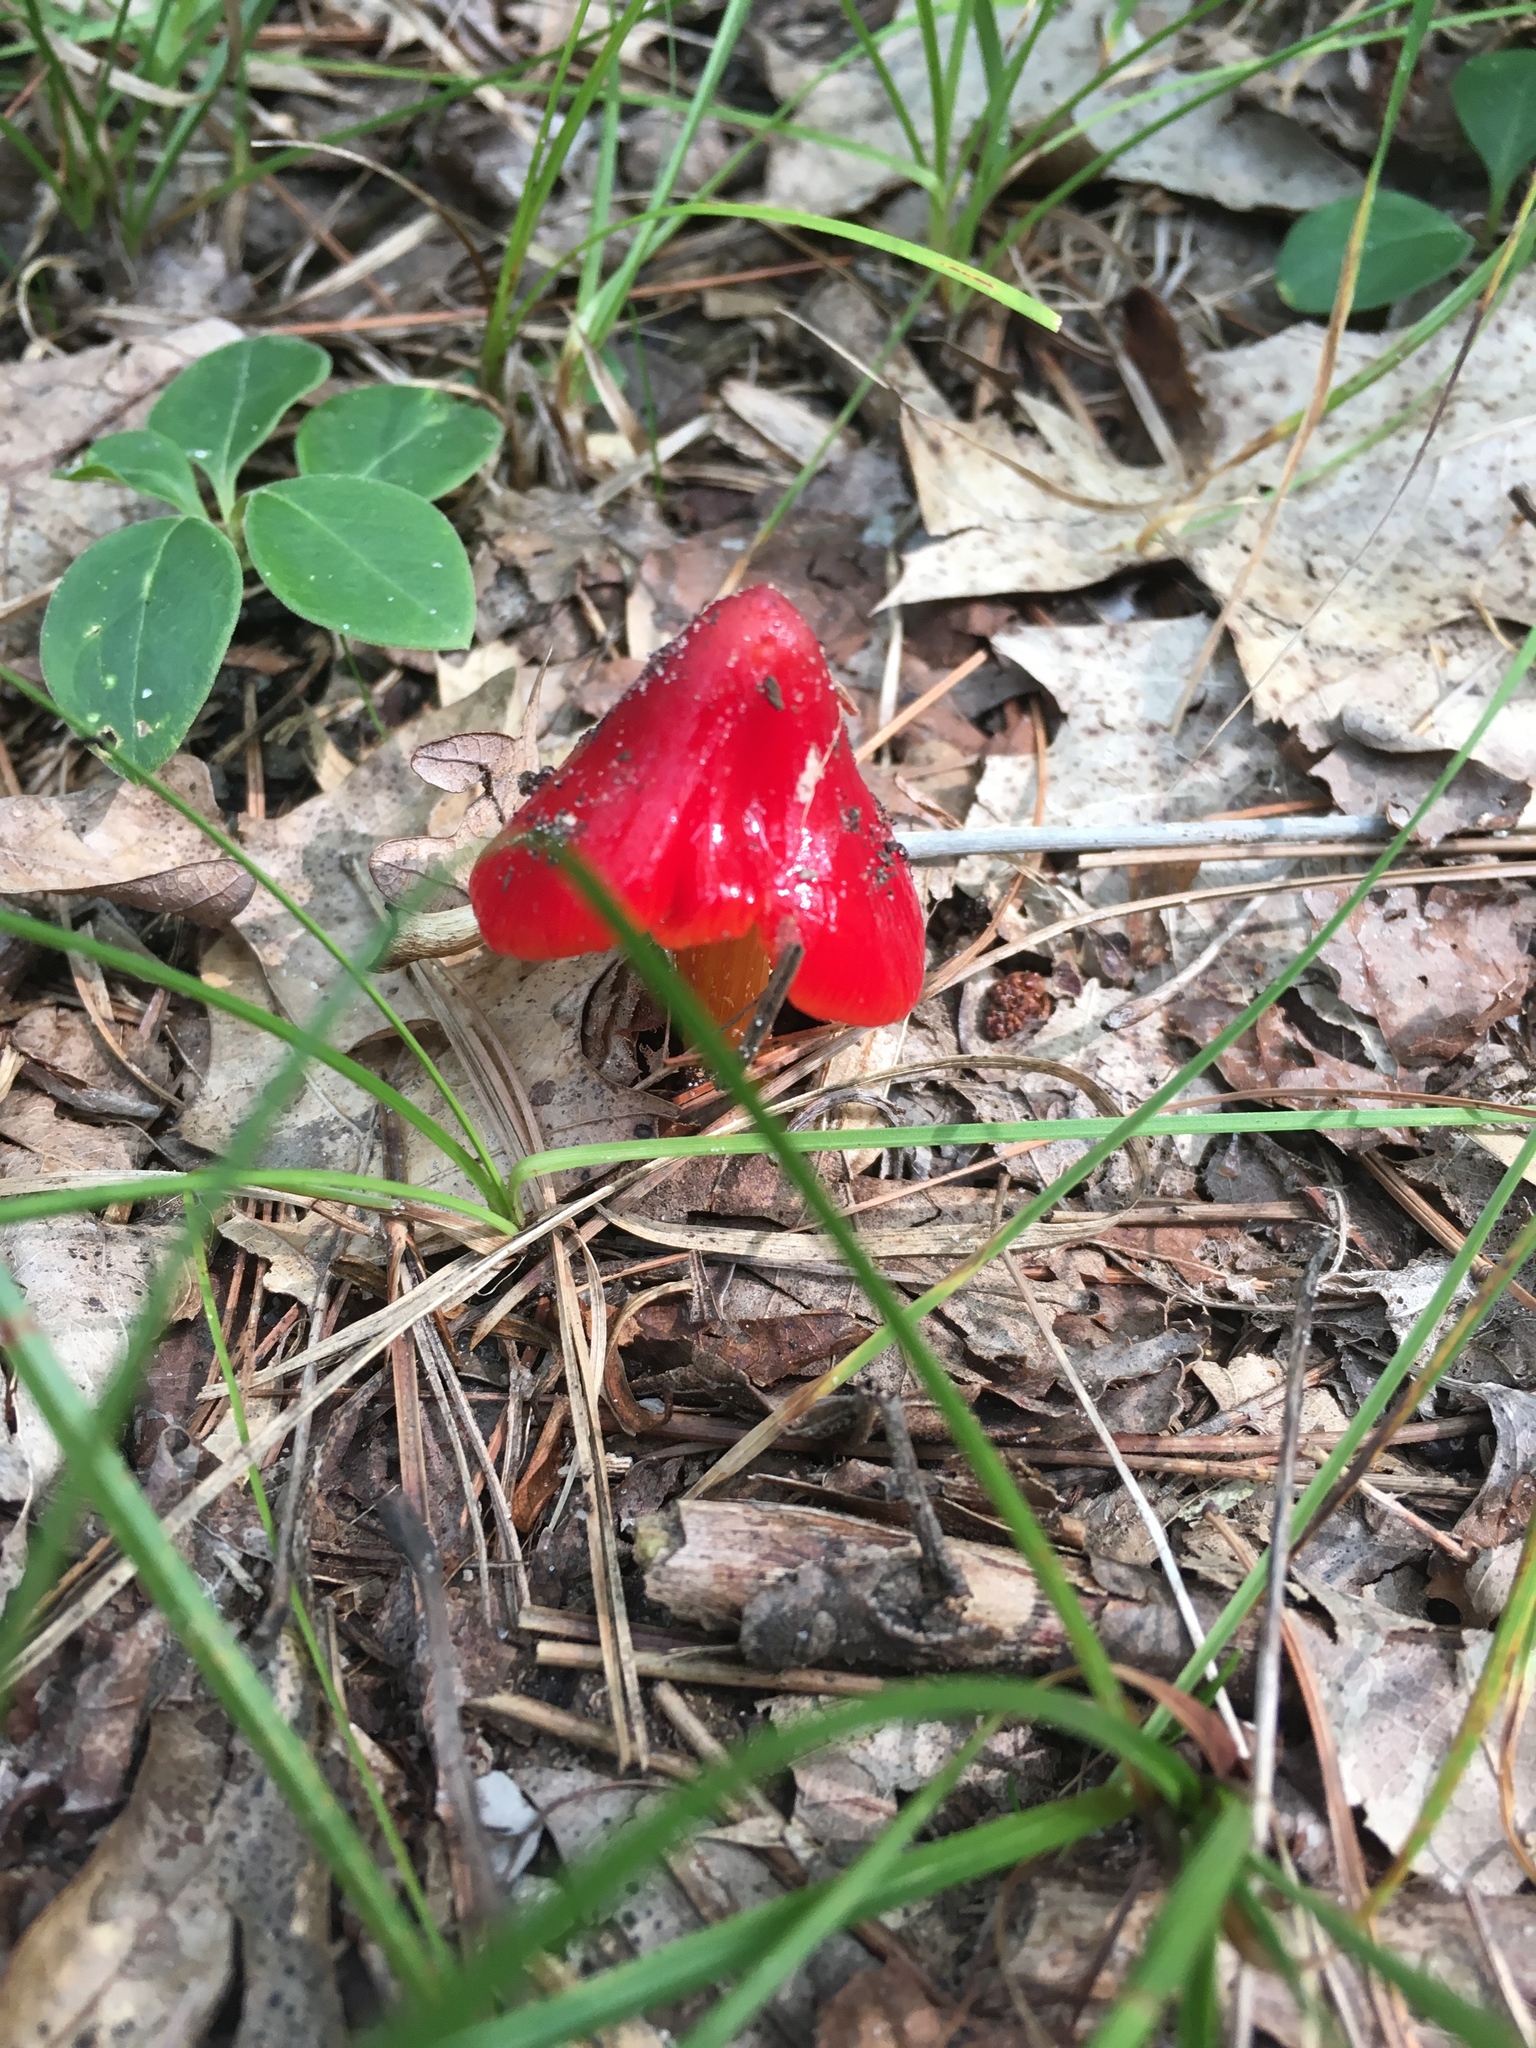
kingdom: Fungi
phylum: Basidiomycota
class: Agaricomycetes
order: Agaricales
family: Hygrophoraceae
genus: Hygrocybe
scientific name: Hygrocybe coccinea
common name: Scarlet hood
